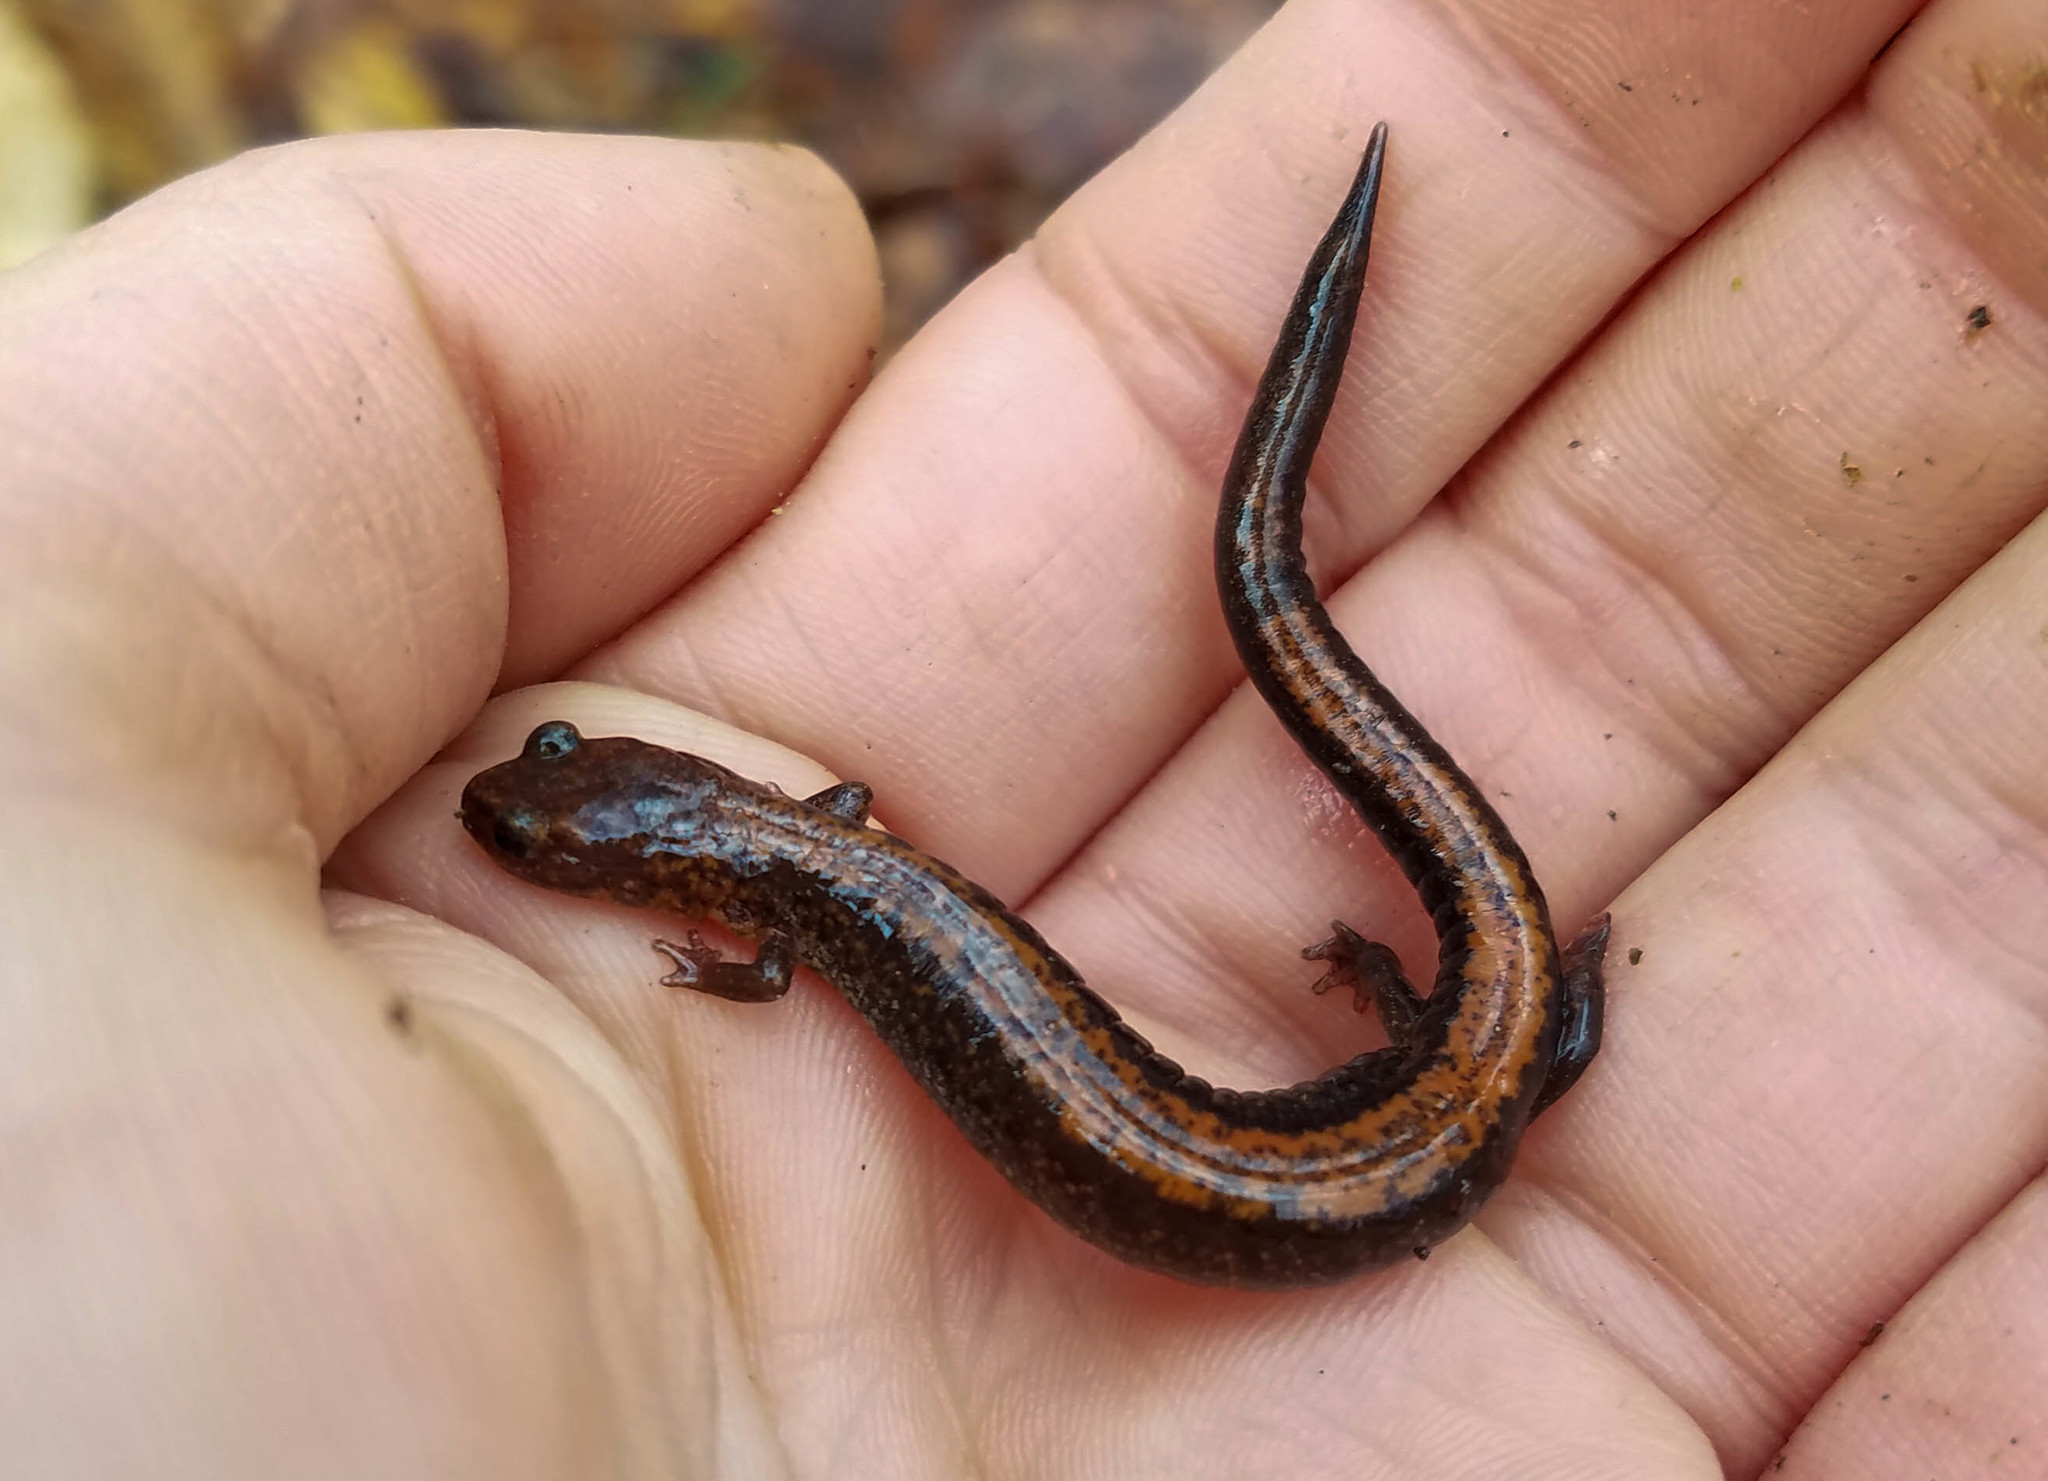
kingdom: Animalia
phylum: Chordata
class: Amphibia
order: Caudata
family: Plethodontidae
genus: Plethodon
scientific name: Plethodon cinereus
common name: Redback salamander
